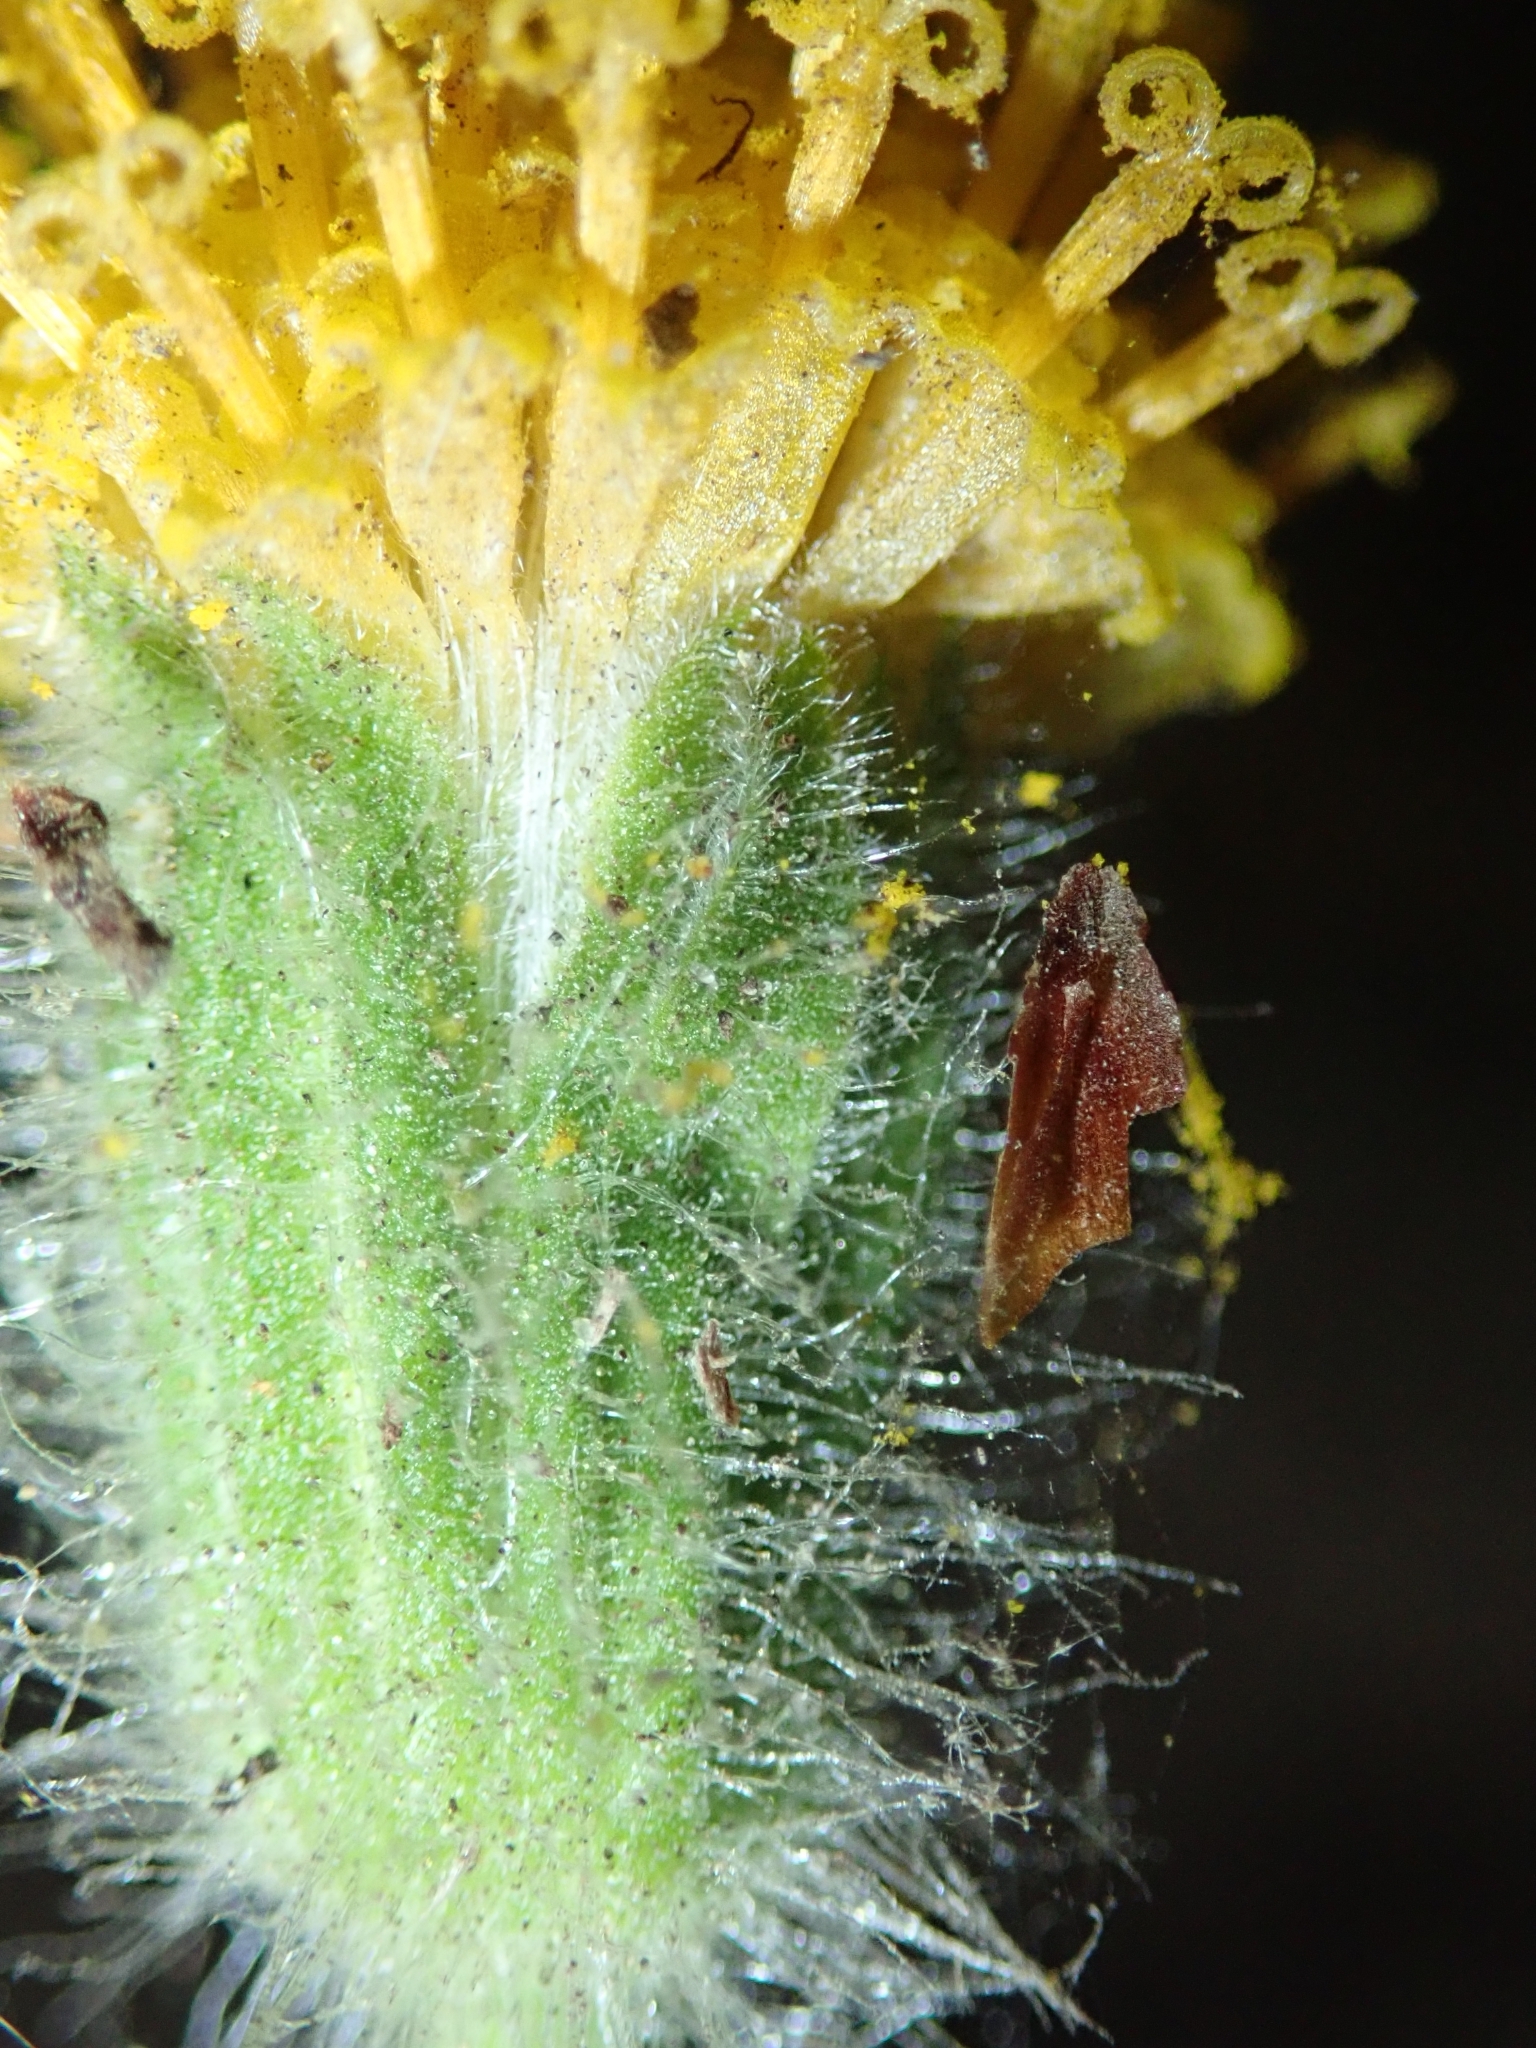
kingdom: Plantae
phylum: Tracheophyta
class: Magnoliopsida
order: Asterales
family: Asteraceae
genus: Arnica
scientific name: Arnica discoidea
